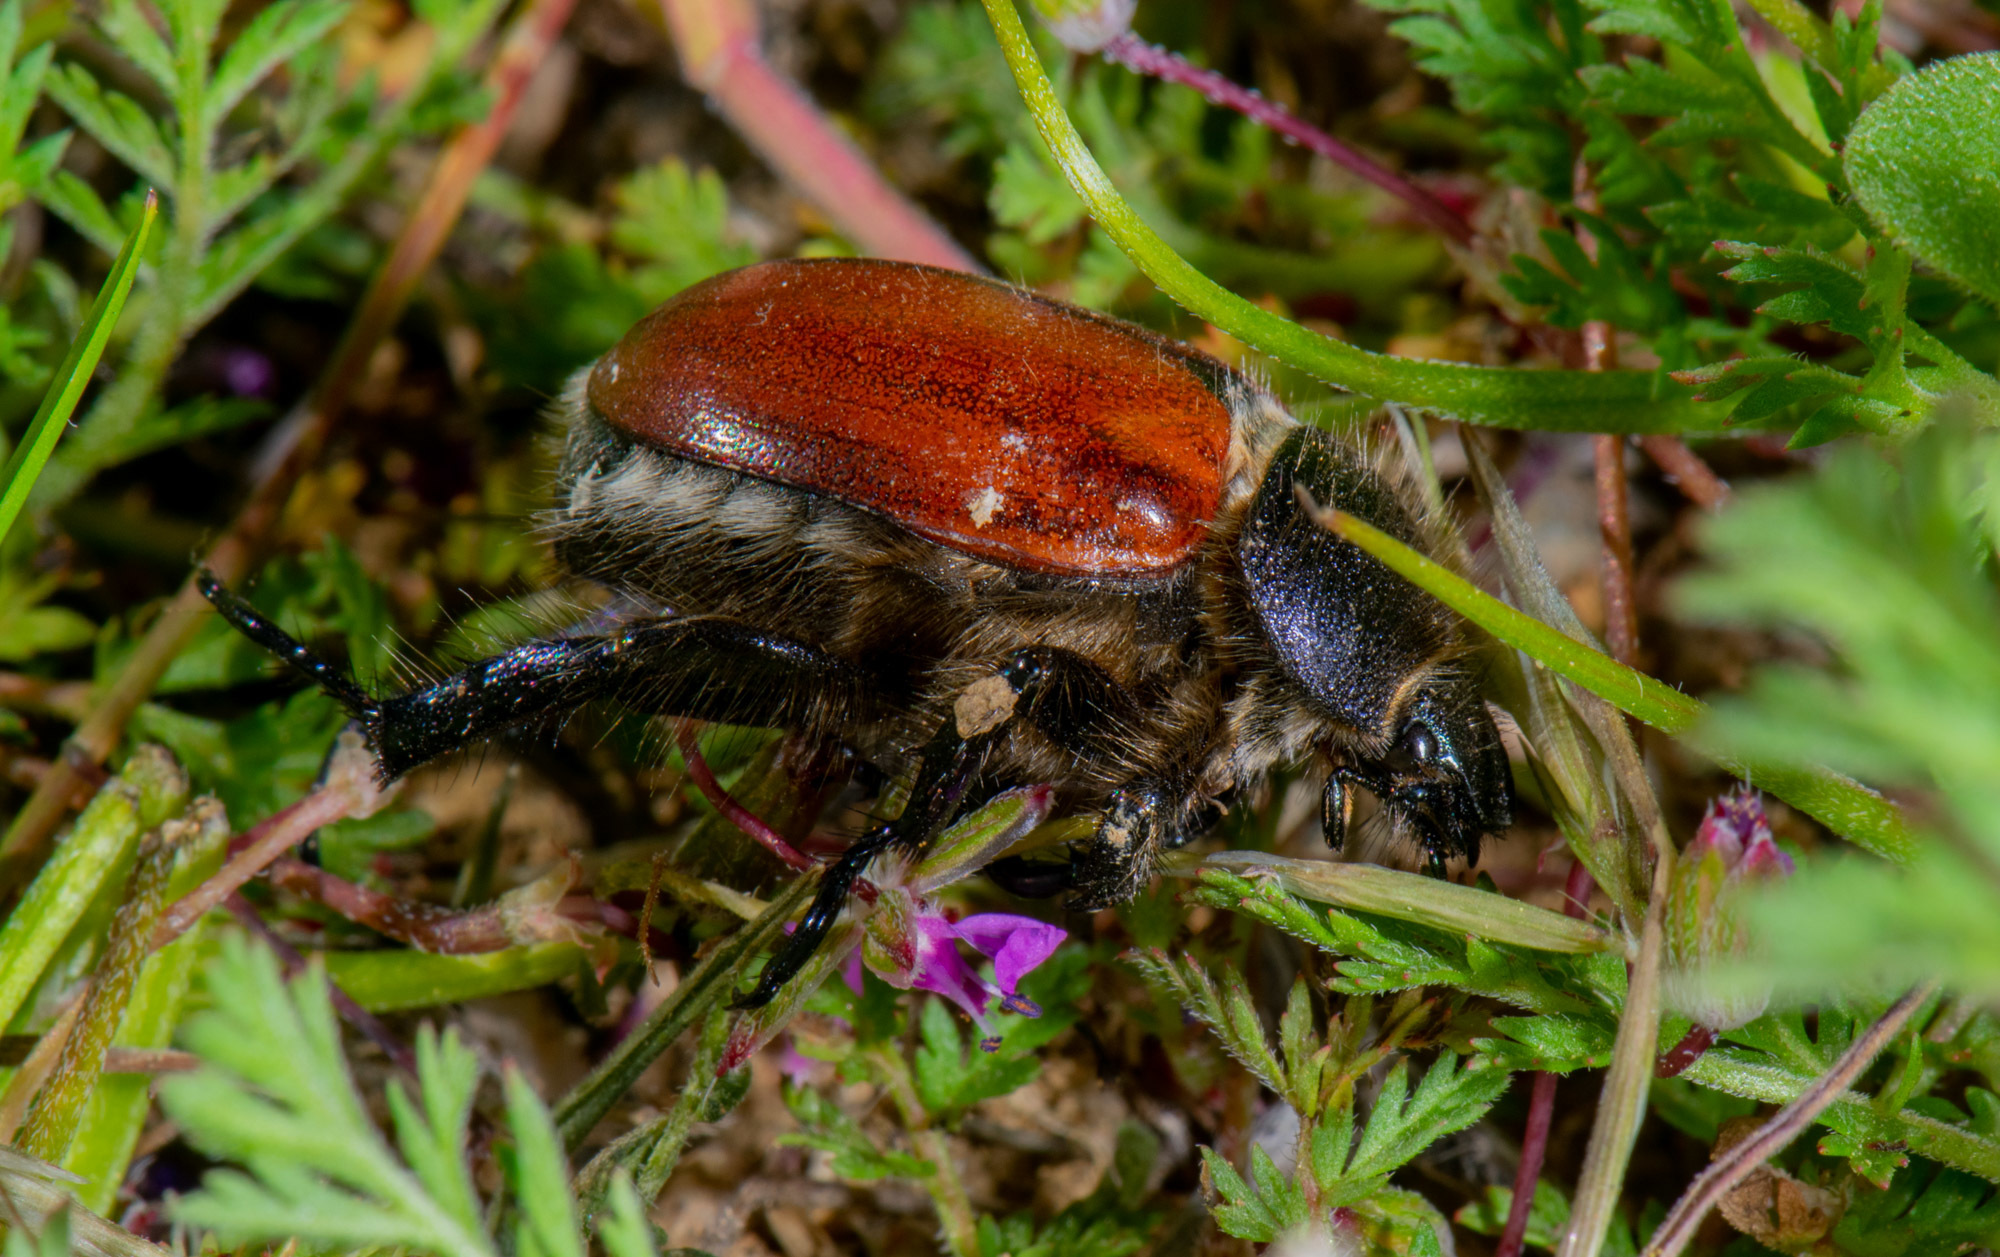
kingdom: Animalia
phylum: Arthropoda
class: Insecta
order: Coleoptera
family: Scarabaeidae
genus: Paracotalpa
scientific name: Paracotalpa ursina
